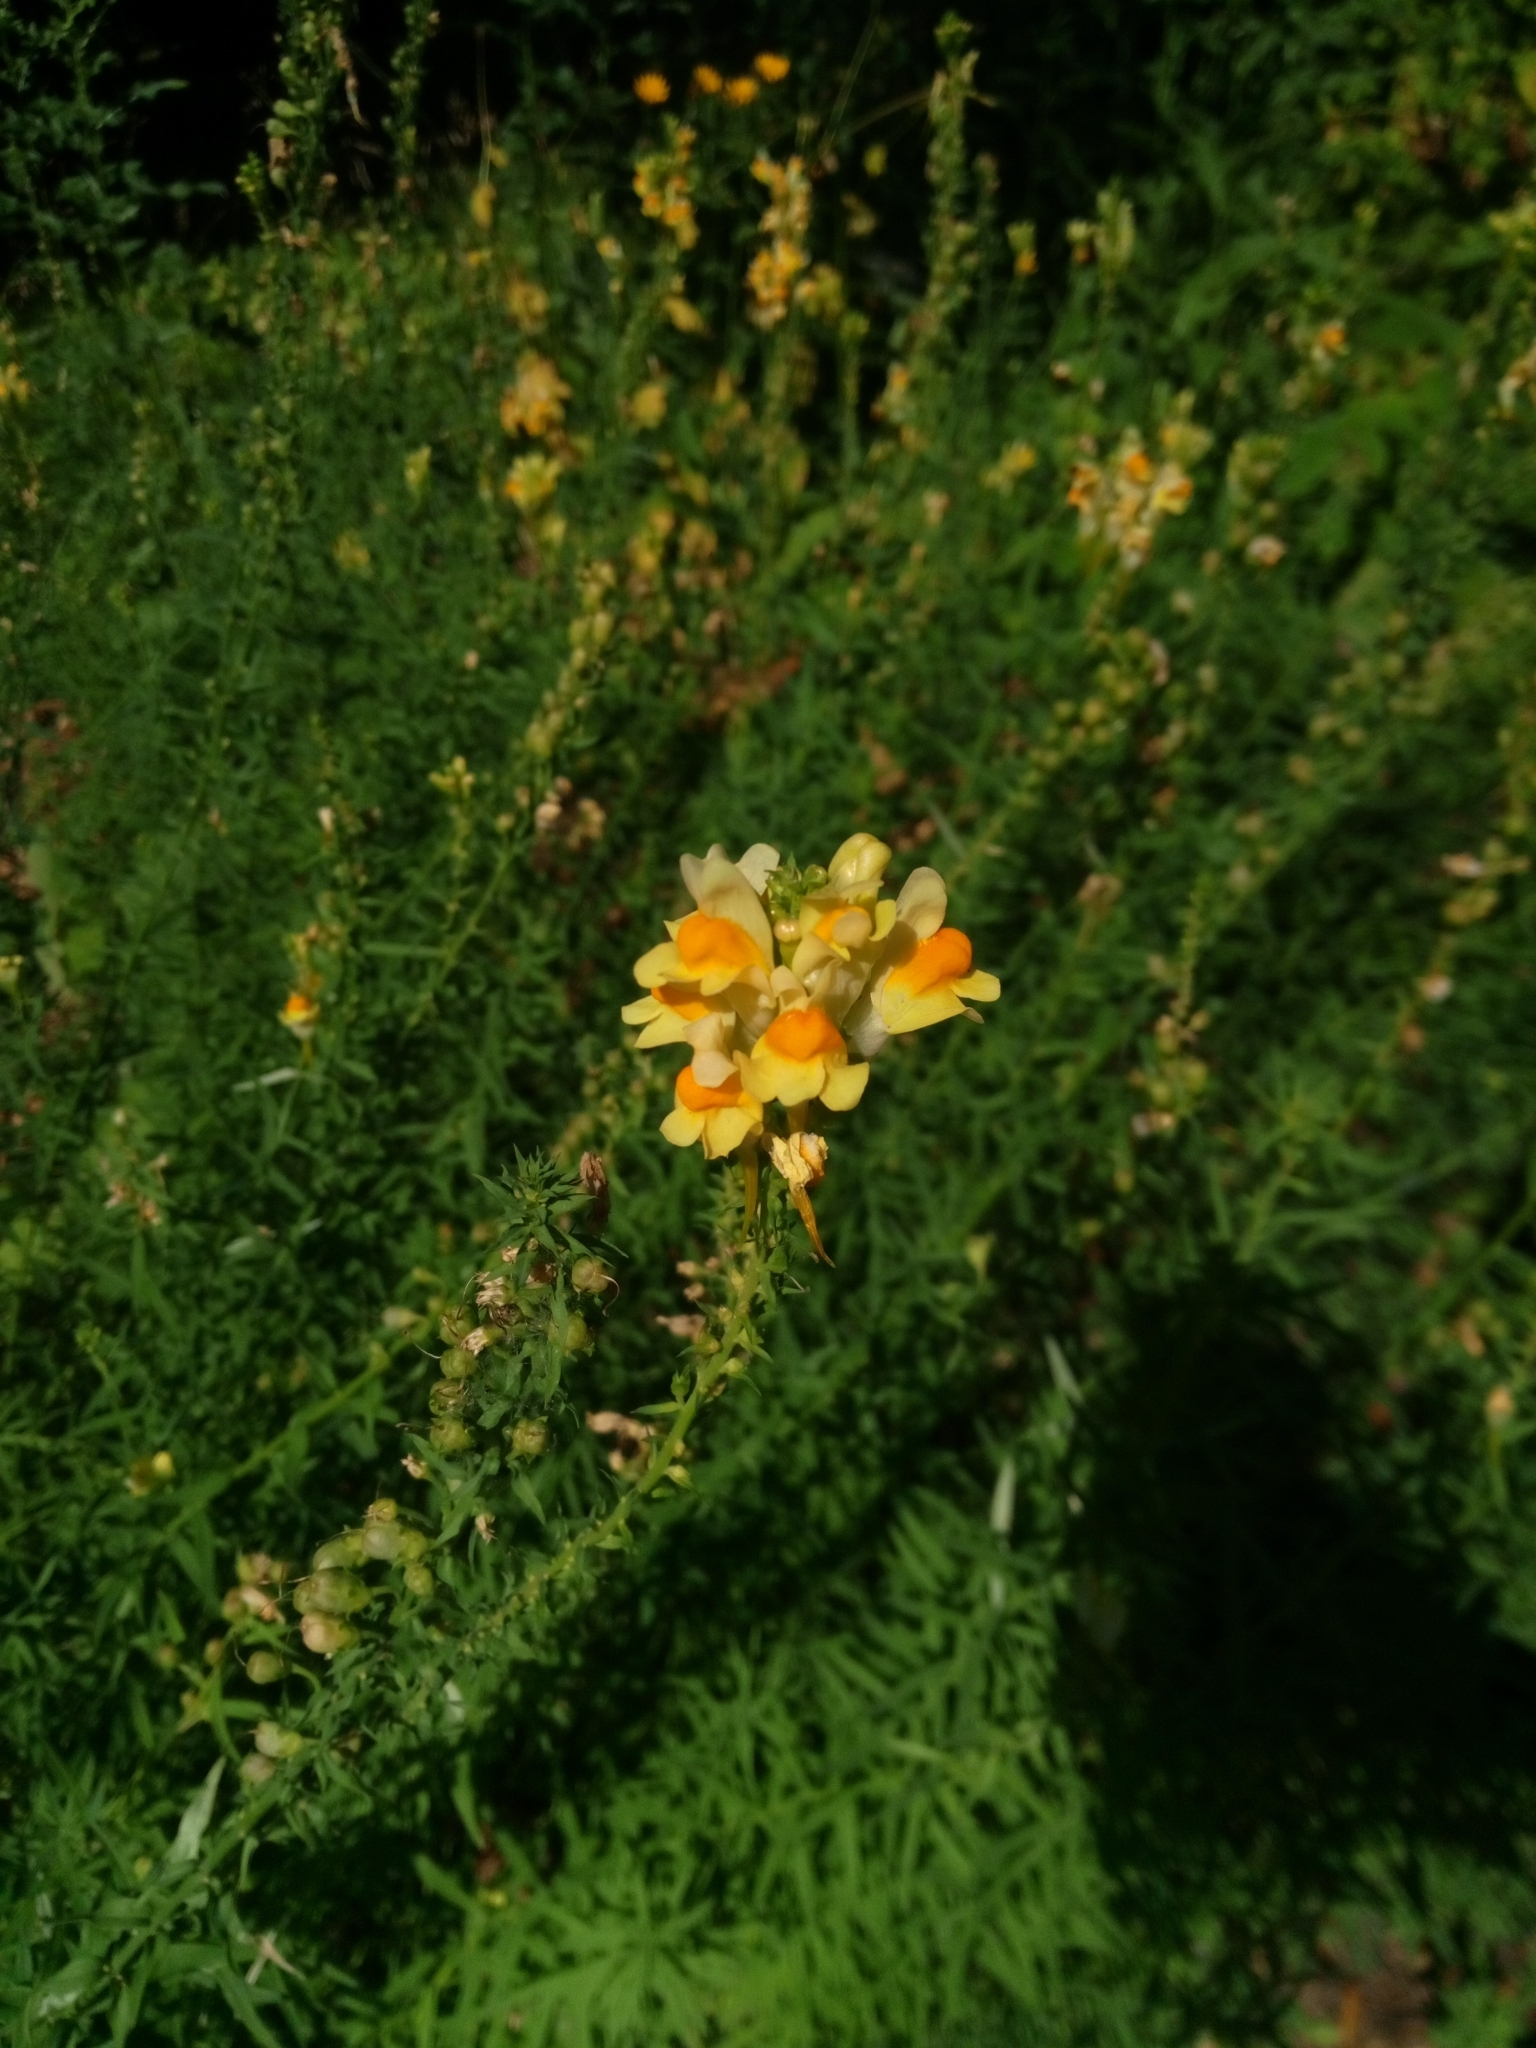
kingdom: Plantae
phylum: Tracheophyta
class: Magnoliopsida
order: Lamiales
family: Plantaginaceae
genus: Linaria
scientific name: Linaria vulgaris
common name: Butter and eggs
